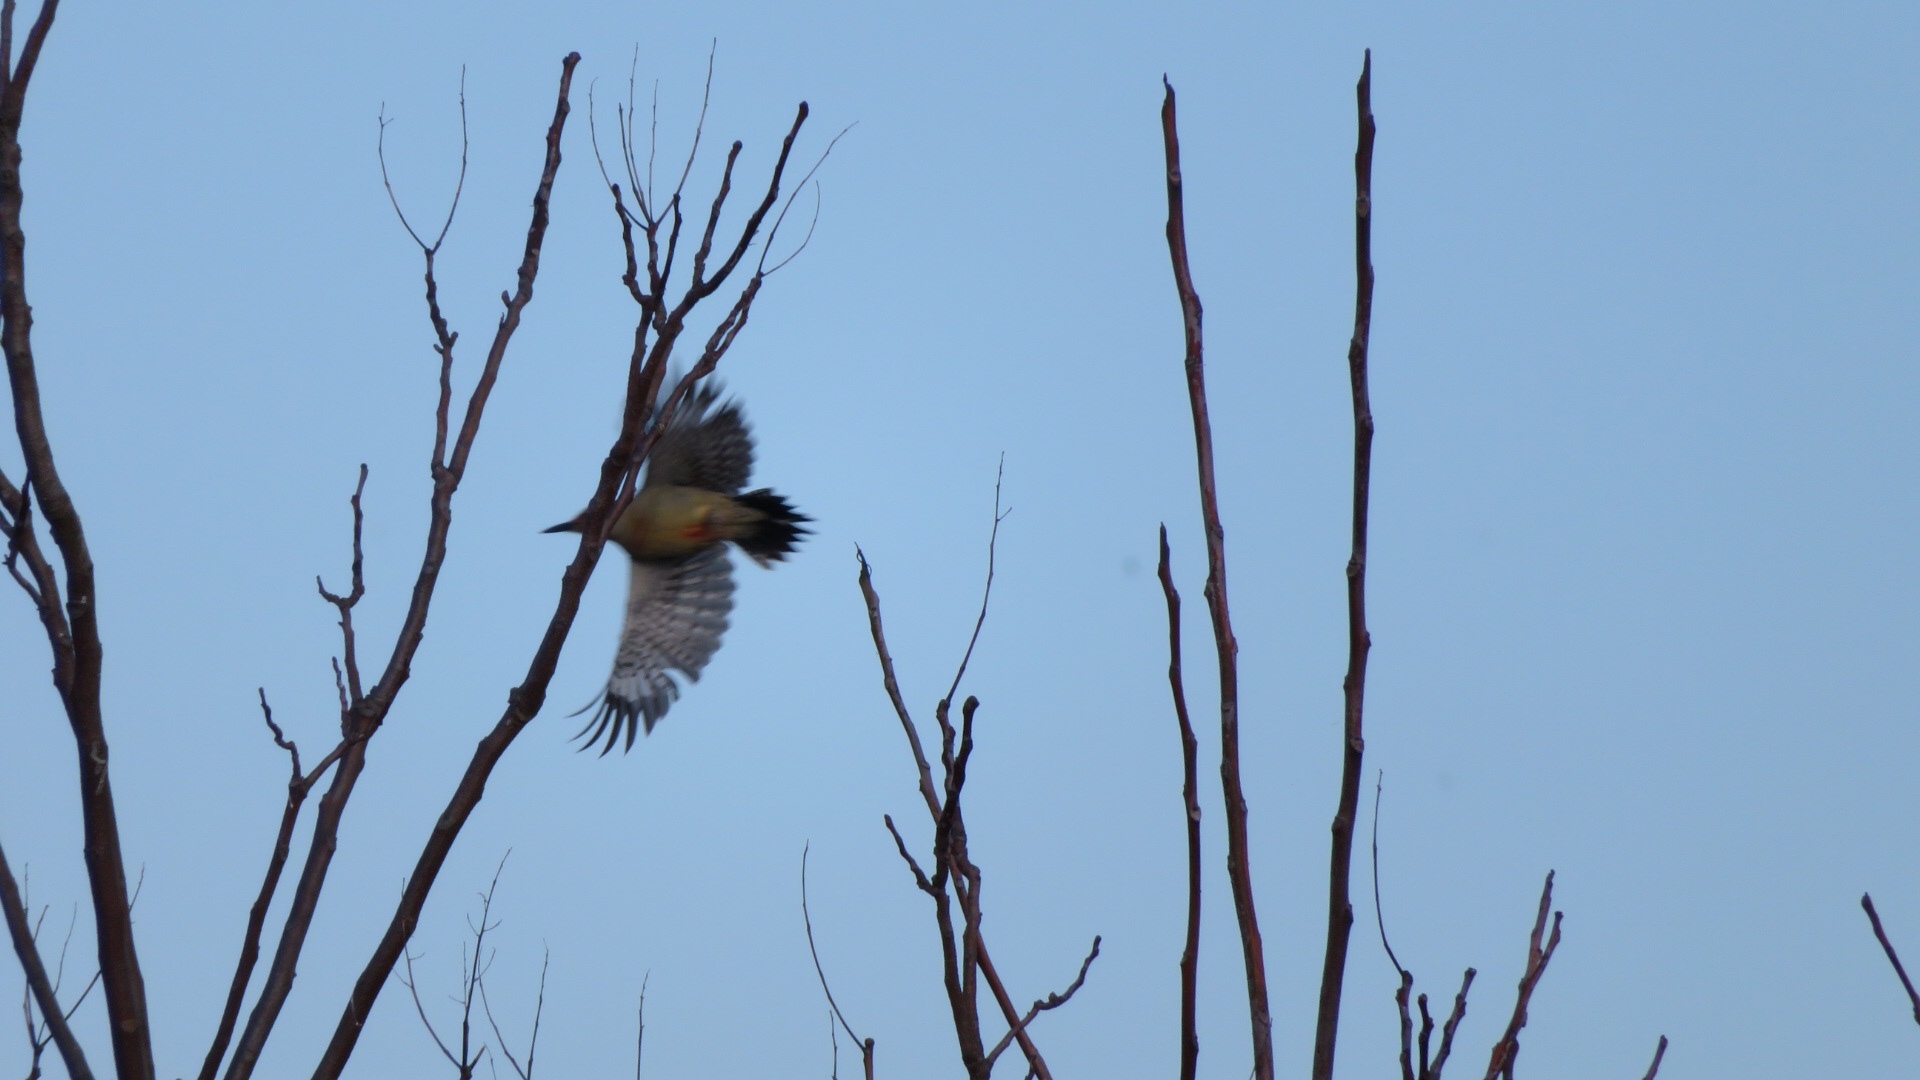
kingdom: Animalia
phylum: Chordata
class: Aves
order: Piciformes
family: Picidae
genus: Melanerpes
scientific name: Melanerpes carolinus
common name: Red-bellied woodpecker
